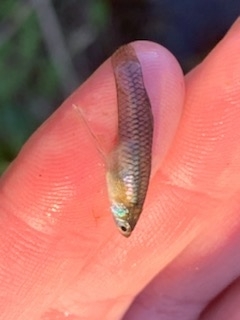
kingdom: Animalia
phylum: Chordata
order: Cyprinodontiformes
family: Poeciliidae
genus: Gambusia
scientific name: Gambusia affinis
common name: Mosquitofish
